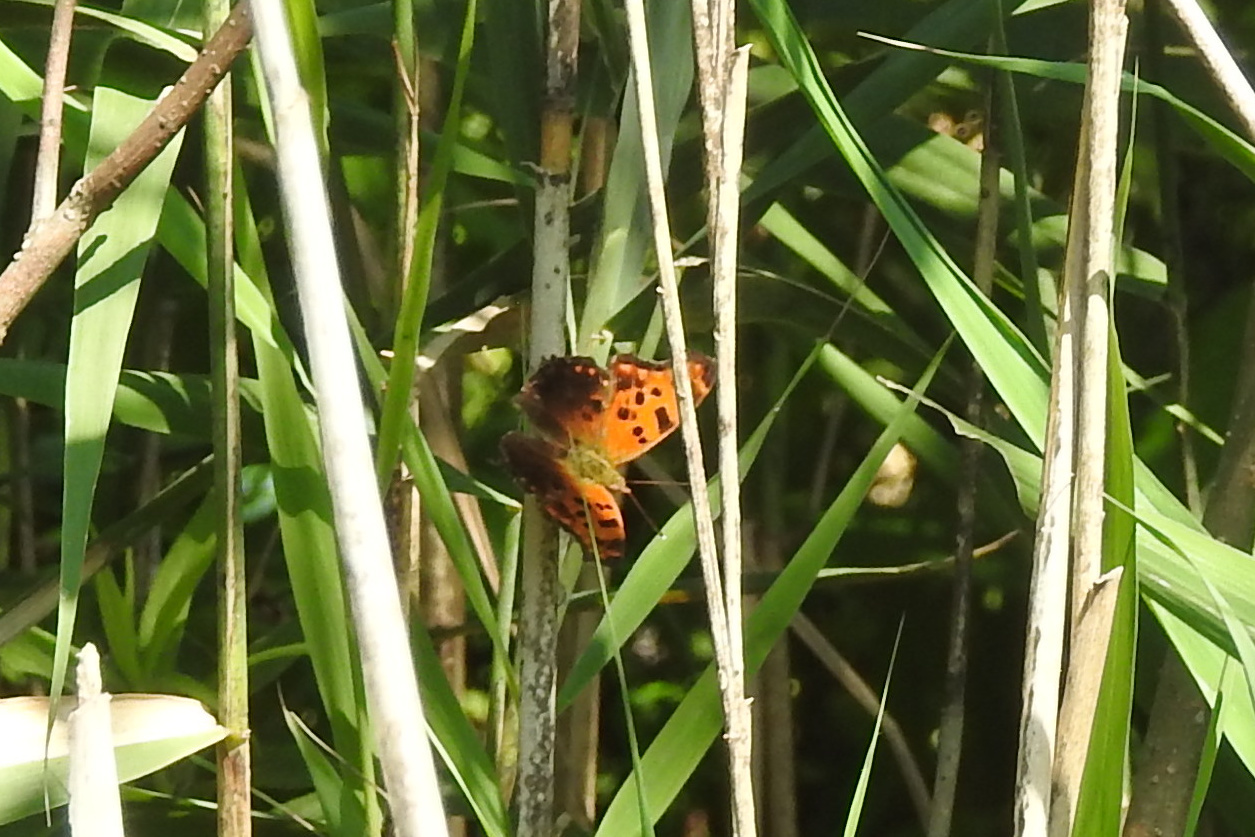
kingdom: Animalia
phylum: Arthropoda
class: Insecta
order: Lepidoptera
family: Nymphalidae
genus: Polygonia
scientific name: Polygonia comma
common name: Eastern comma
